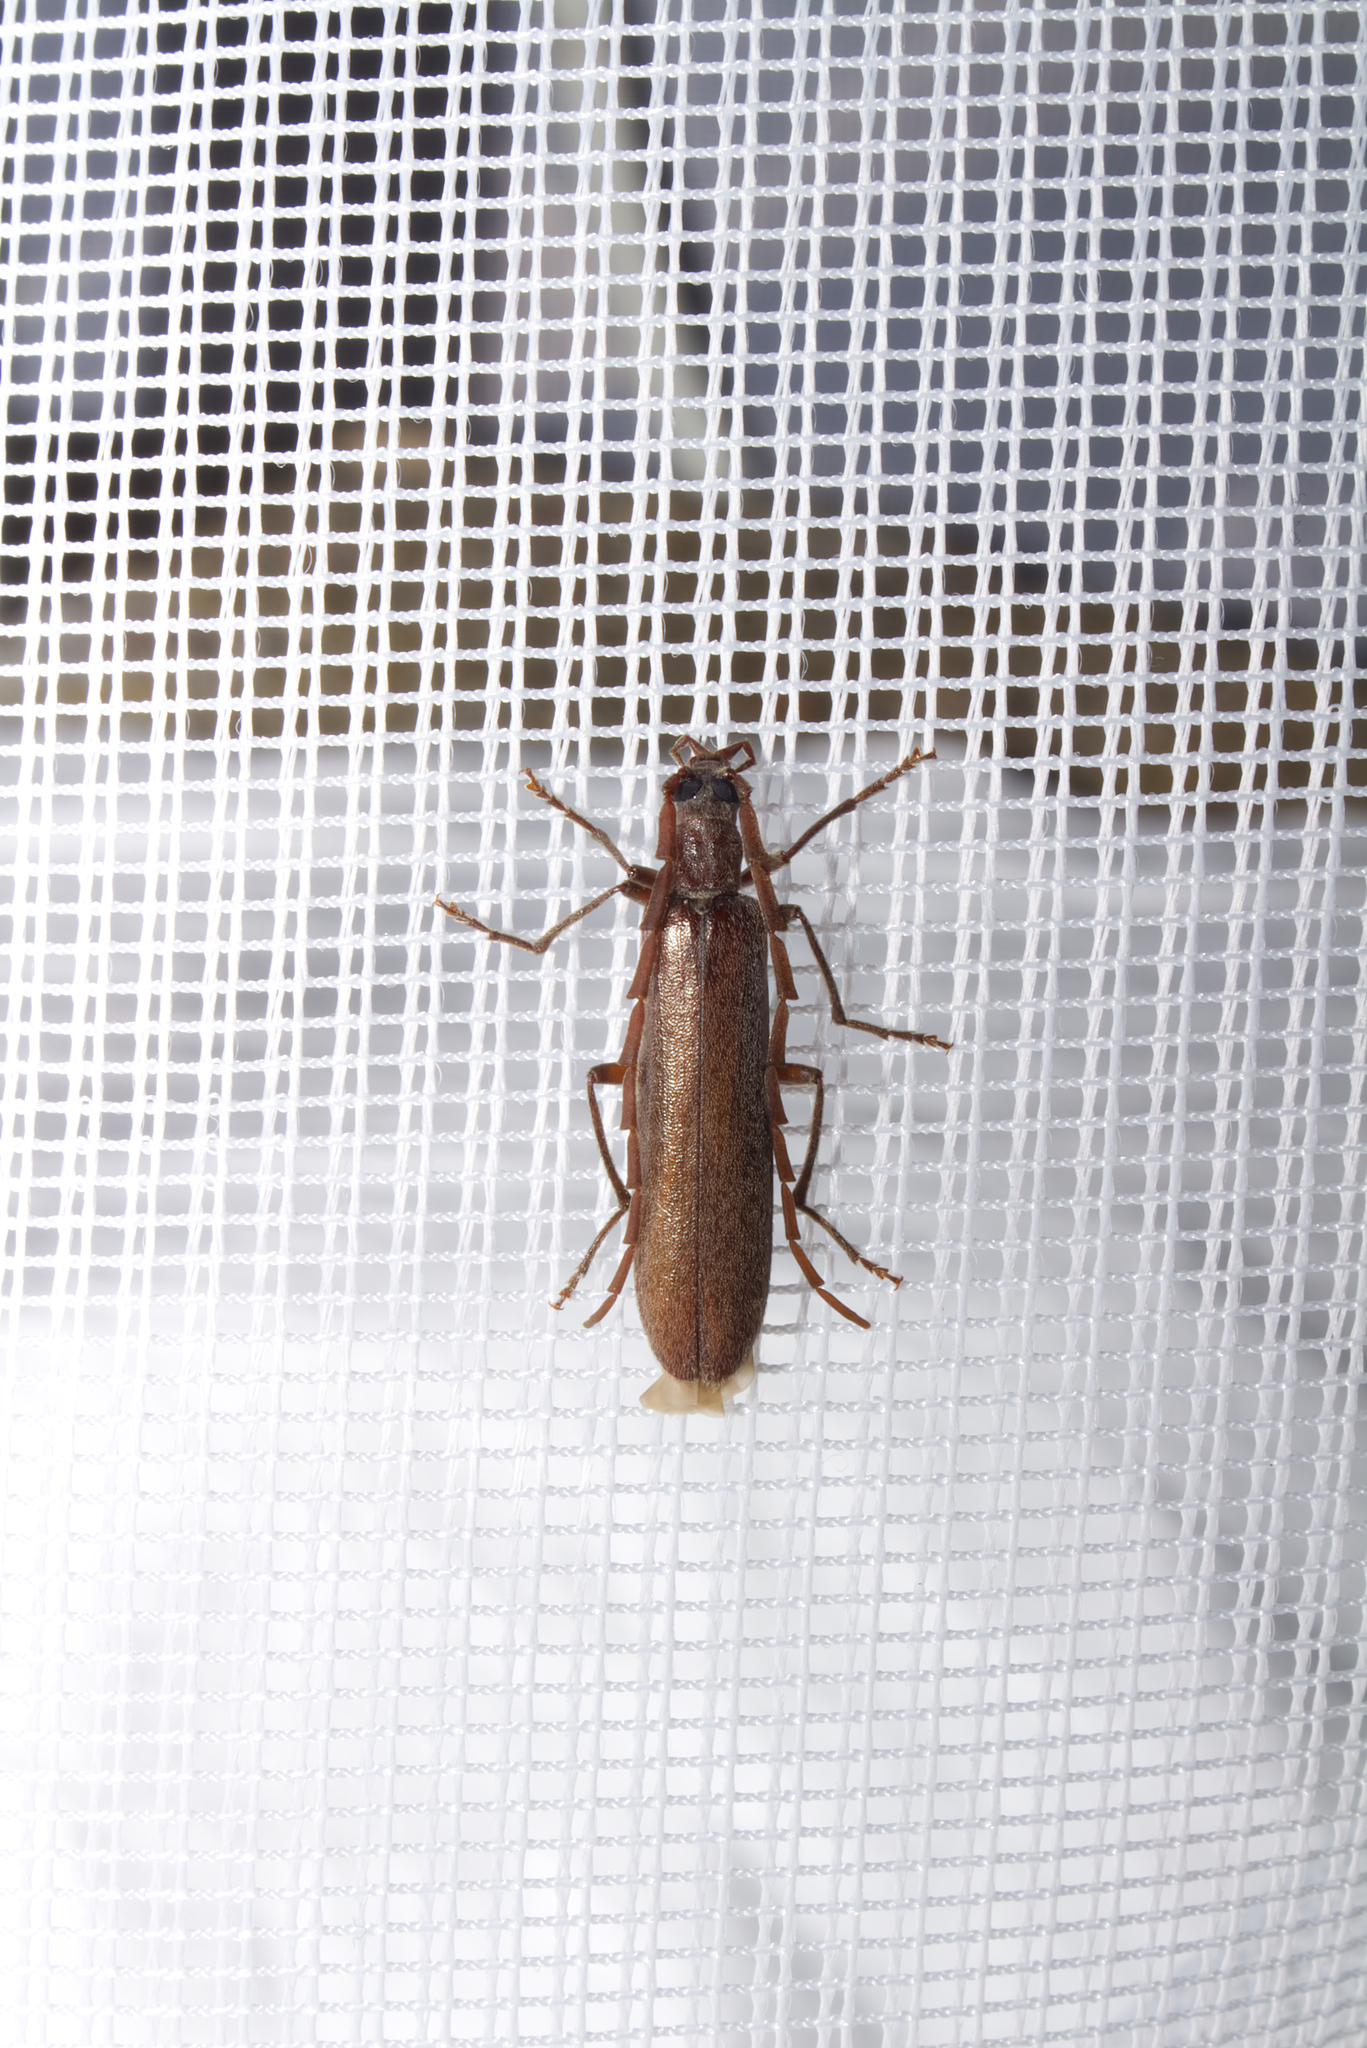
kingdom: Animalia
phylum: Arthropoda
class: Insecta
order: Coleoptera
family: Cerambycidae
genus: Vesperus
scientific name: Vesperus luridus
